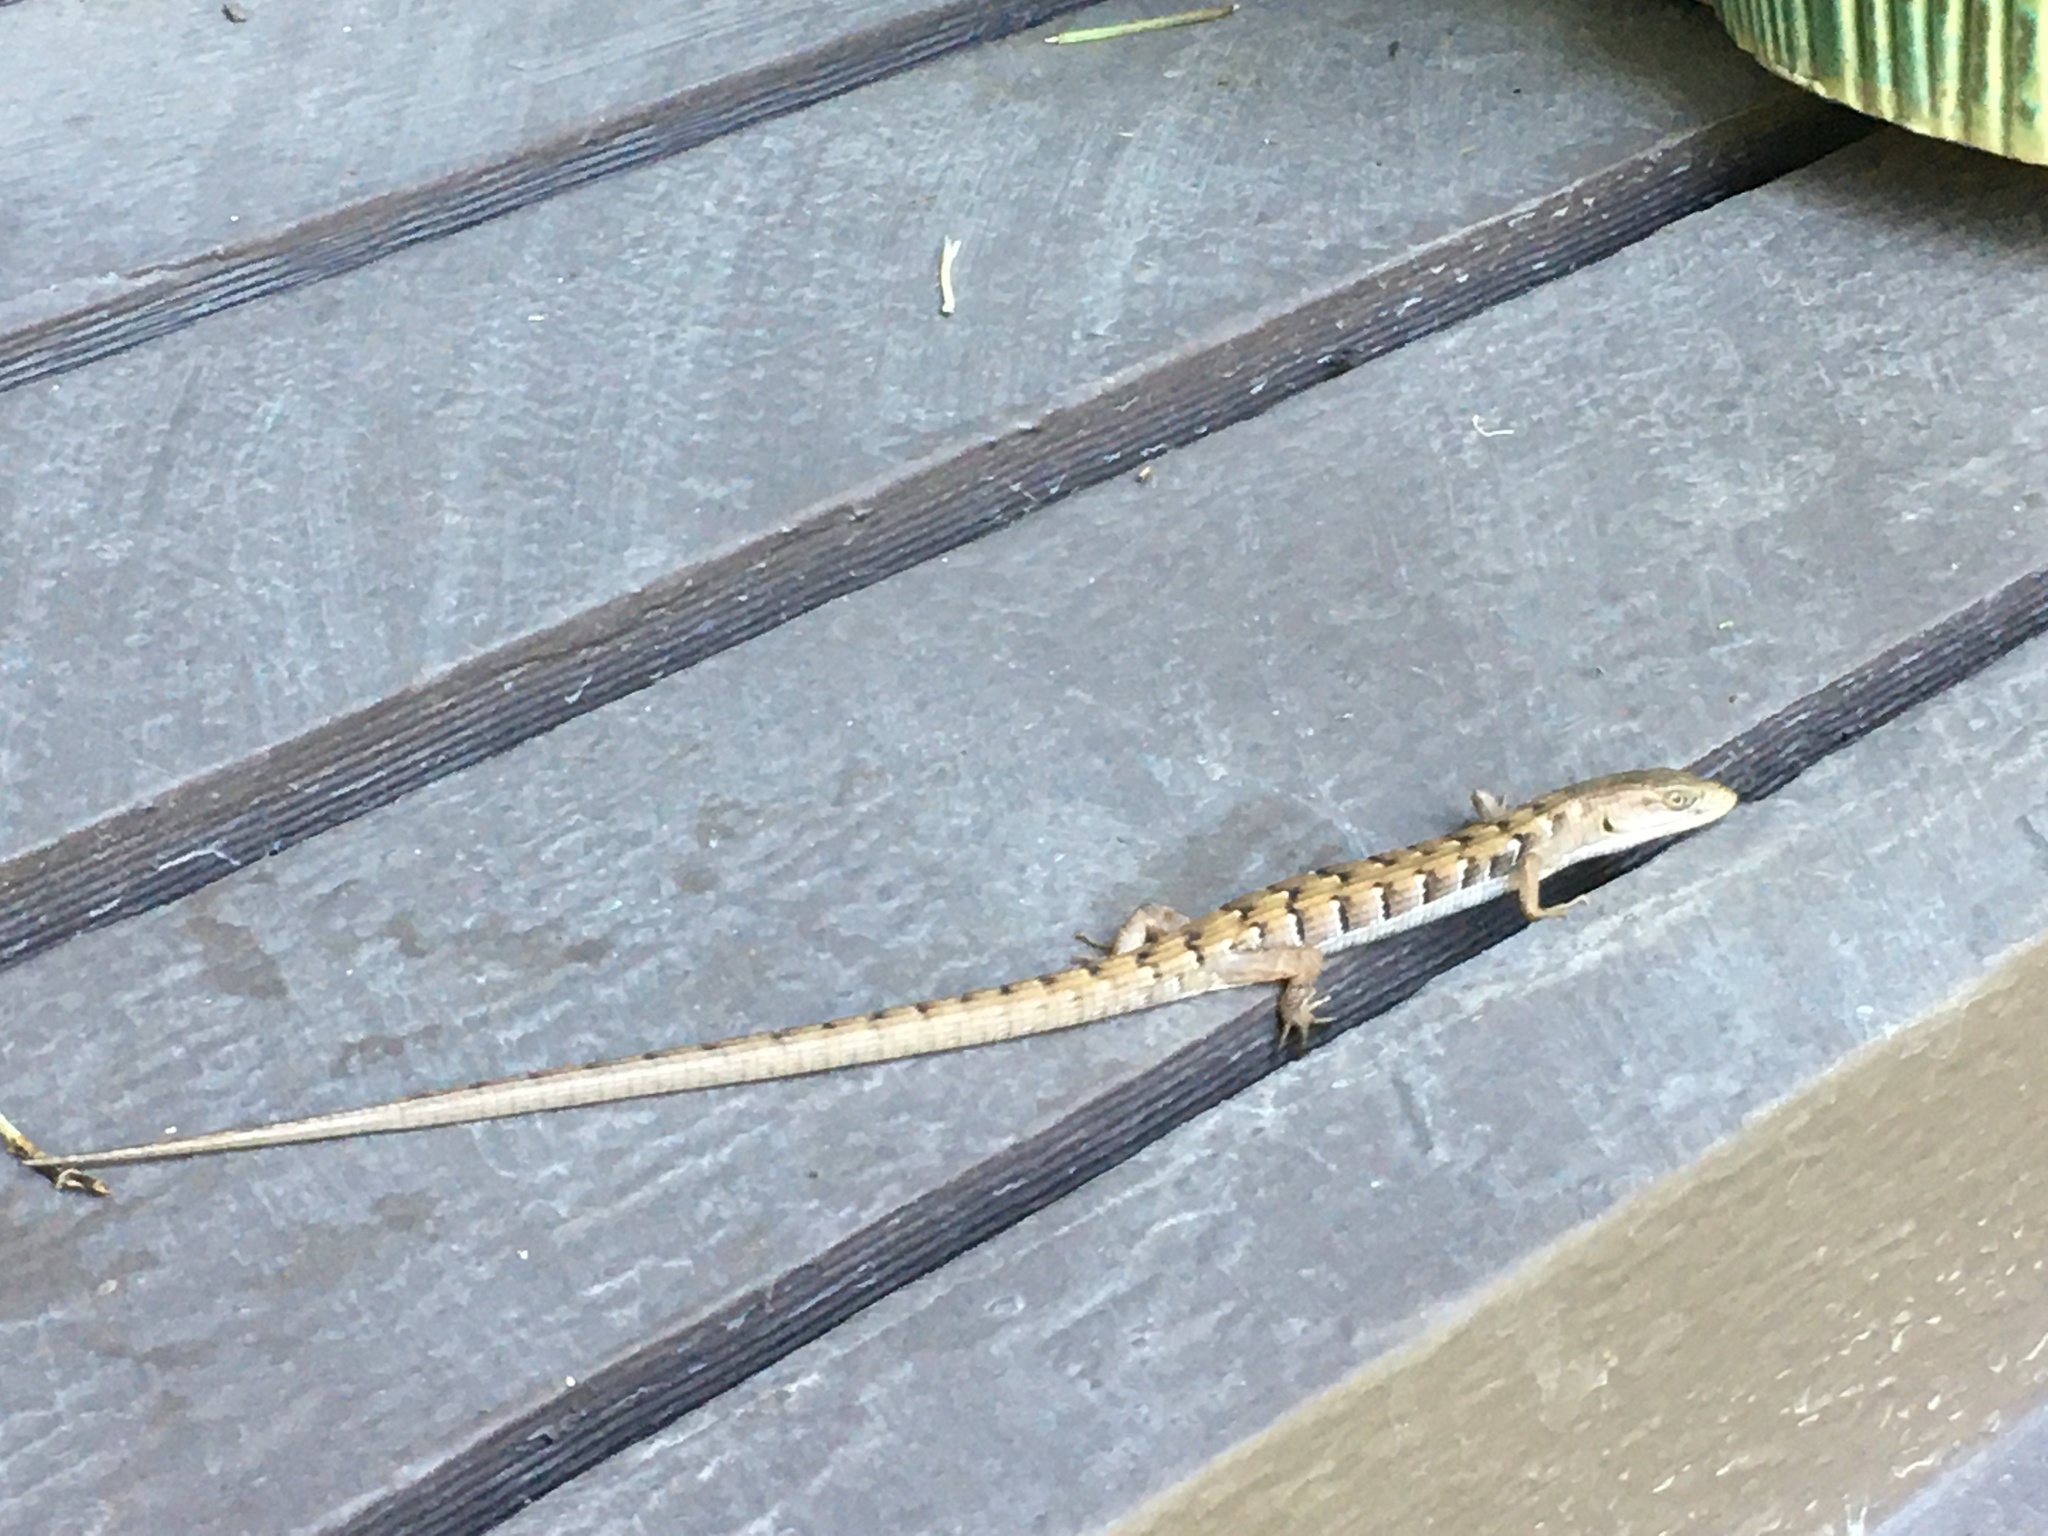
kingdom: Animalia
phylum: Chordata
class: Squamata
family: Anguidae
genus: Elgaria
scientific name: Elgaria multicarinata
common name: Southern alligator lizard
